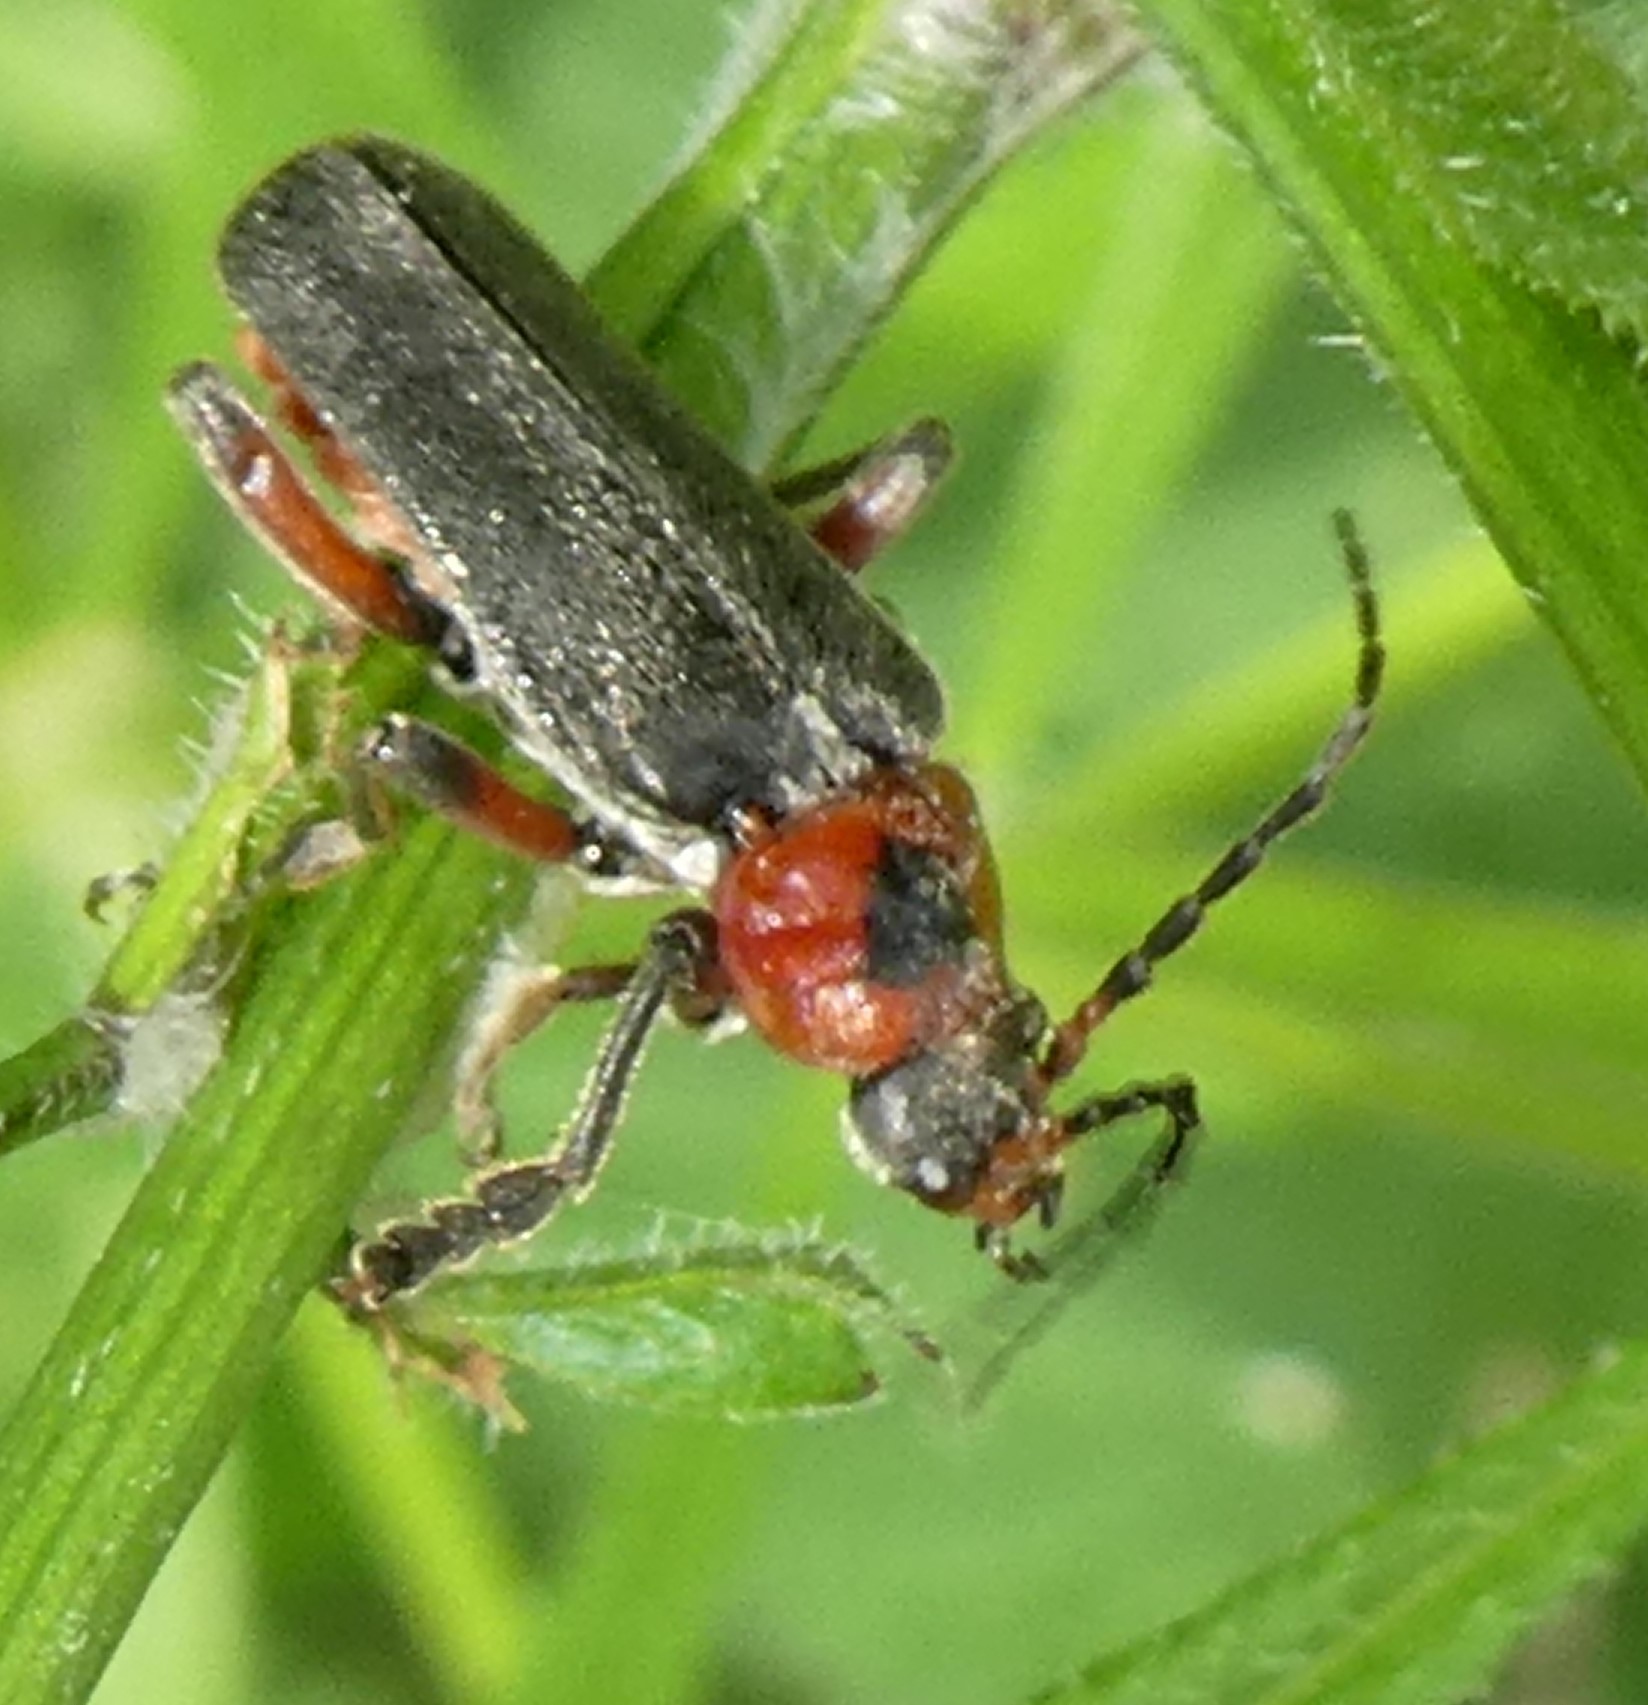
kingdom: Animalia
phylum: Arthropoda
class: Insecta
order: Coleoptera
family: Cantharidae
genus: Cantharis
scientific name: Cantharis rustica
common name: Soldier beetle
